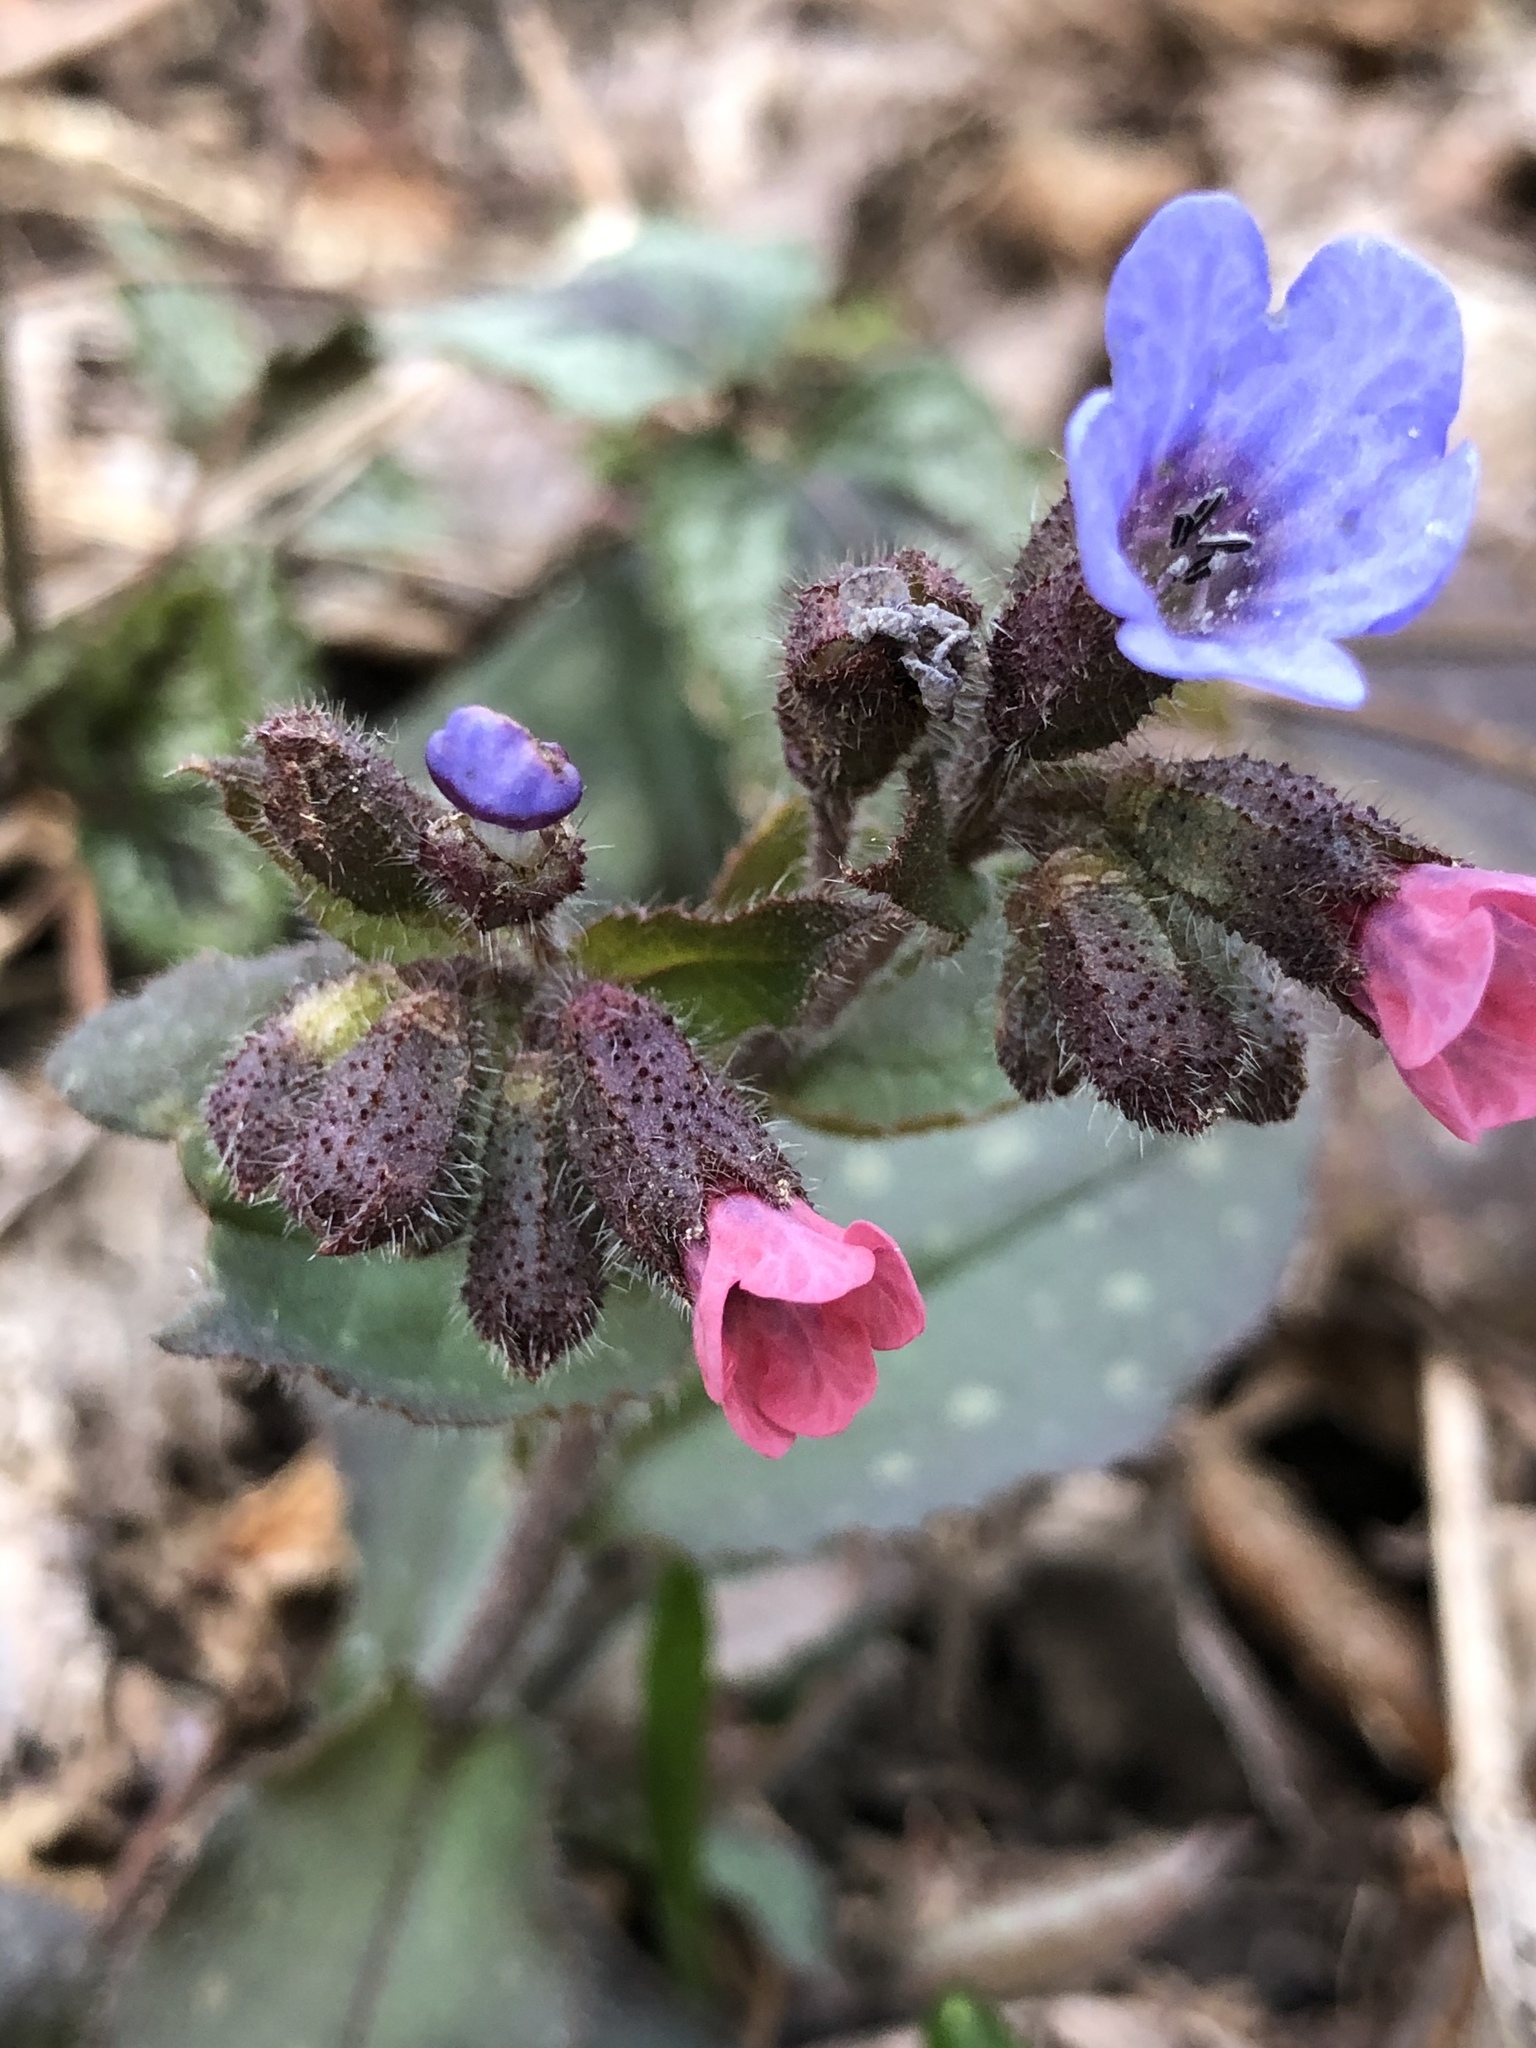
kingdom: Plantae
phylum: Tracheophyta
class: Magnoliopsida
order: Boraginales
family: Boraginaceae
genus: Pulmonaria
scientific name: Pulmonaria officinalis
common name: Lungwort
